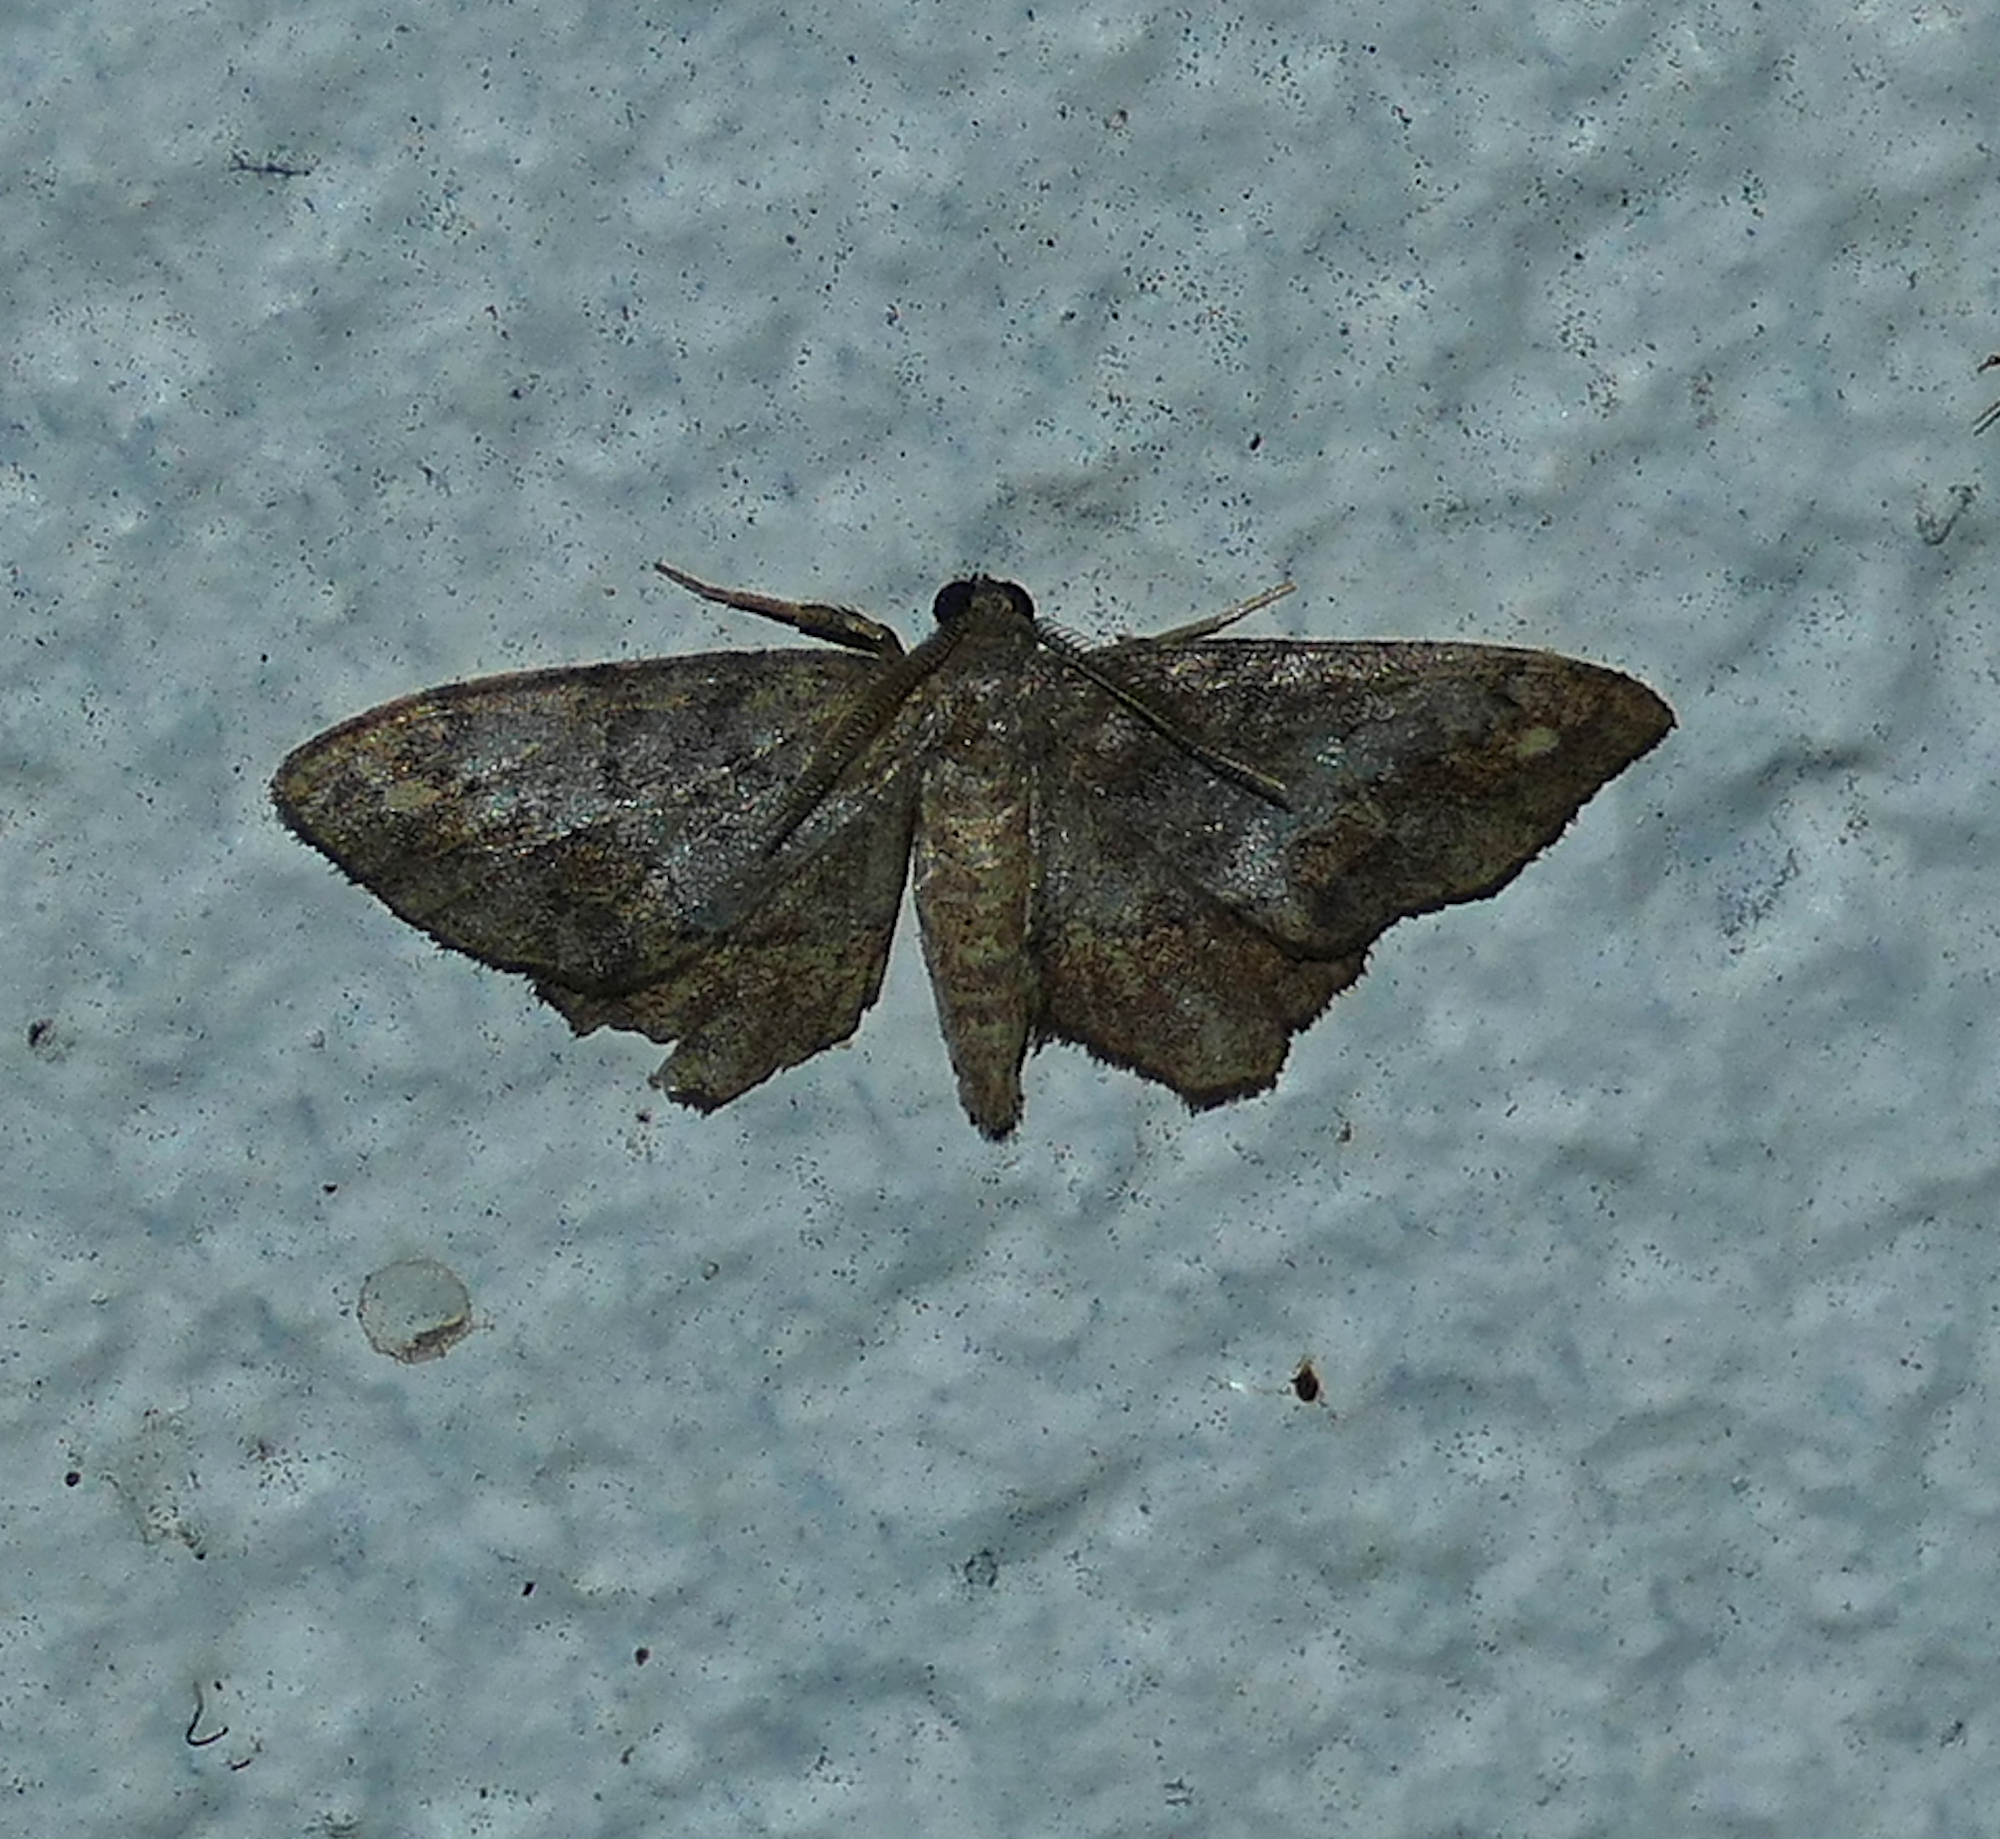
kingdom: Animalia
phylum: Arthropoda
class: Insecta
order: Lepidoptera
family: Geometridae
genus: Hypagyrtis
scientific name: Hypagyrtis unipunctata
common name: One-spotted variant
